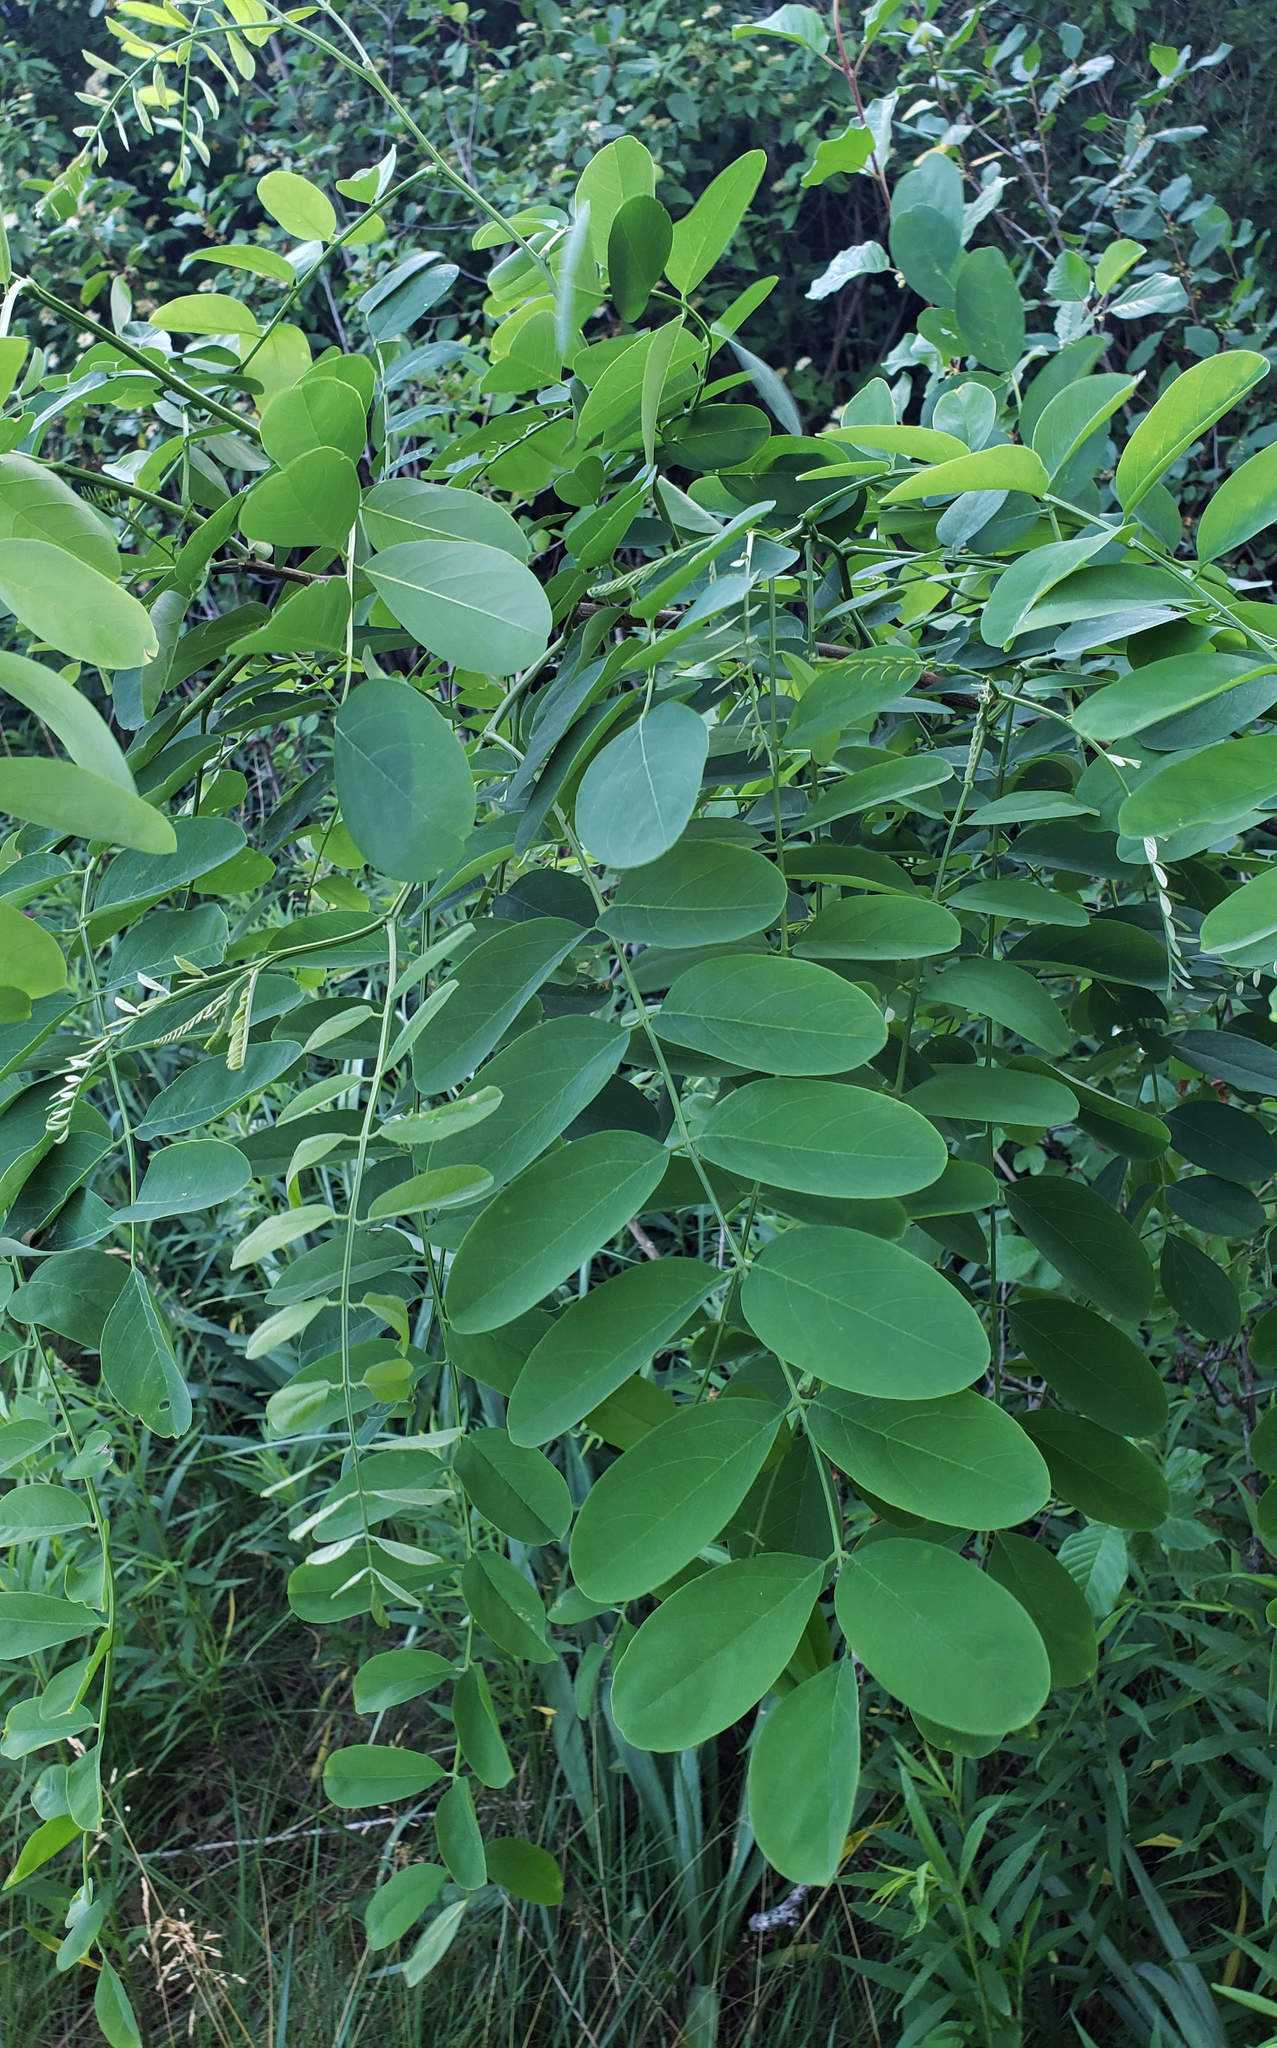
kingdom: Plantae
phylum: Tracheophyta
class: Magnoliopsida
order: Fabales
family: Fabaceae
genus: Robinia
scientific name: Robinia pseudoacacia
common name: Black locust
